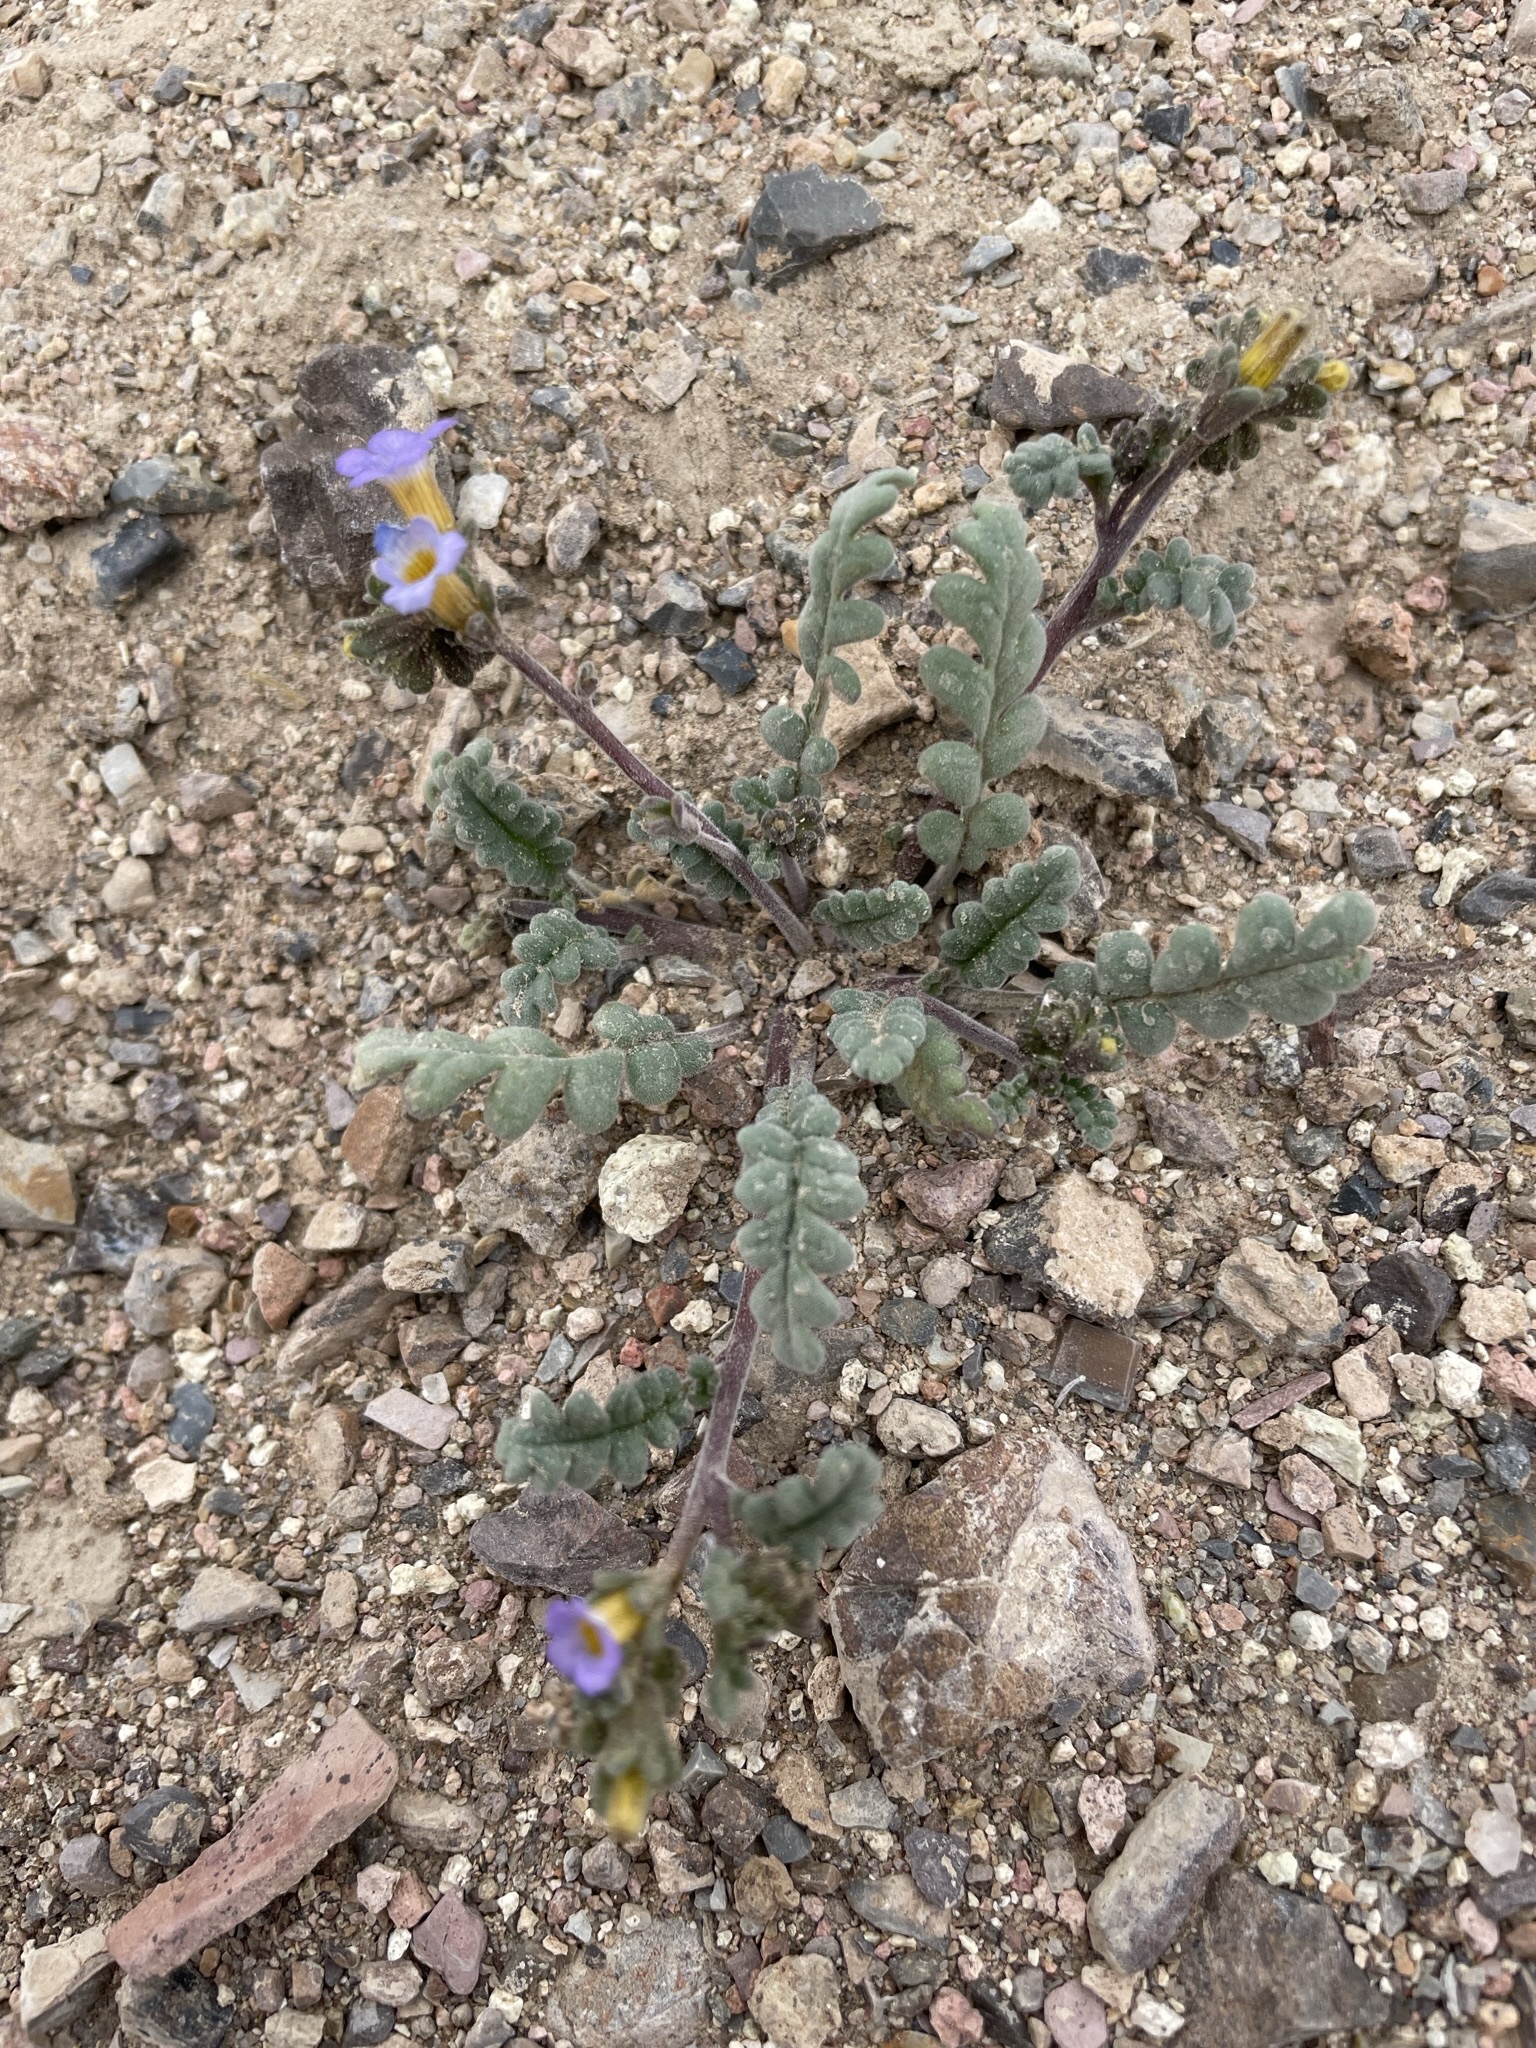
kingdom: Plantae
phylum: Tracheophyta
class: Magnoliopsida
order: Boraginales
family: Hydrophyllaceae
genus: Phacelia
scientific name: Phacelia fremontii
